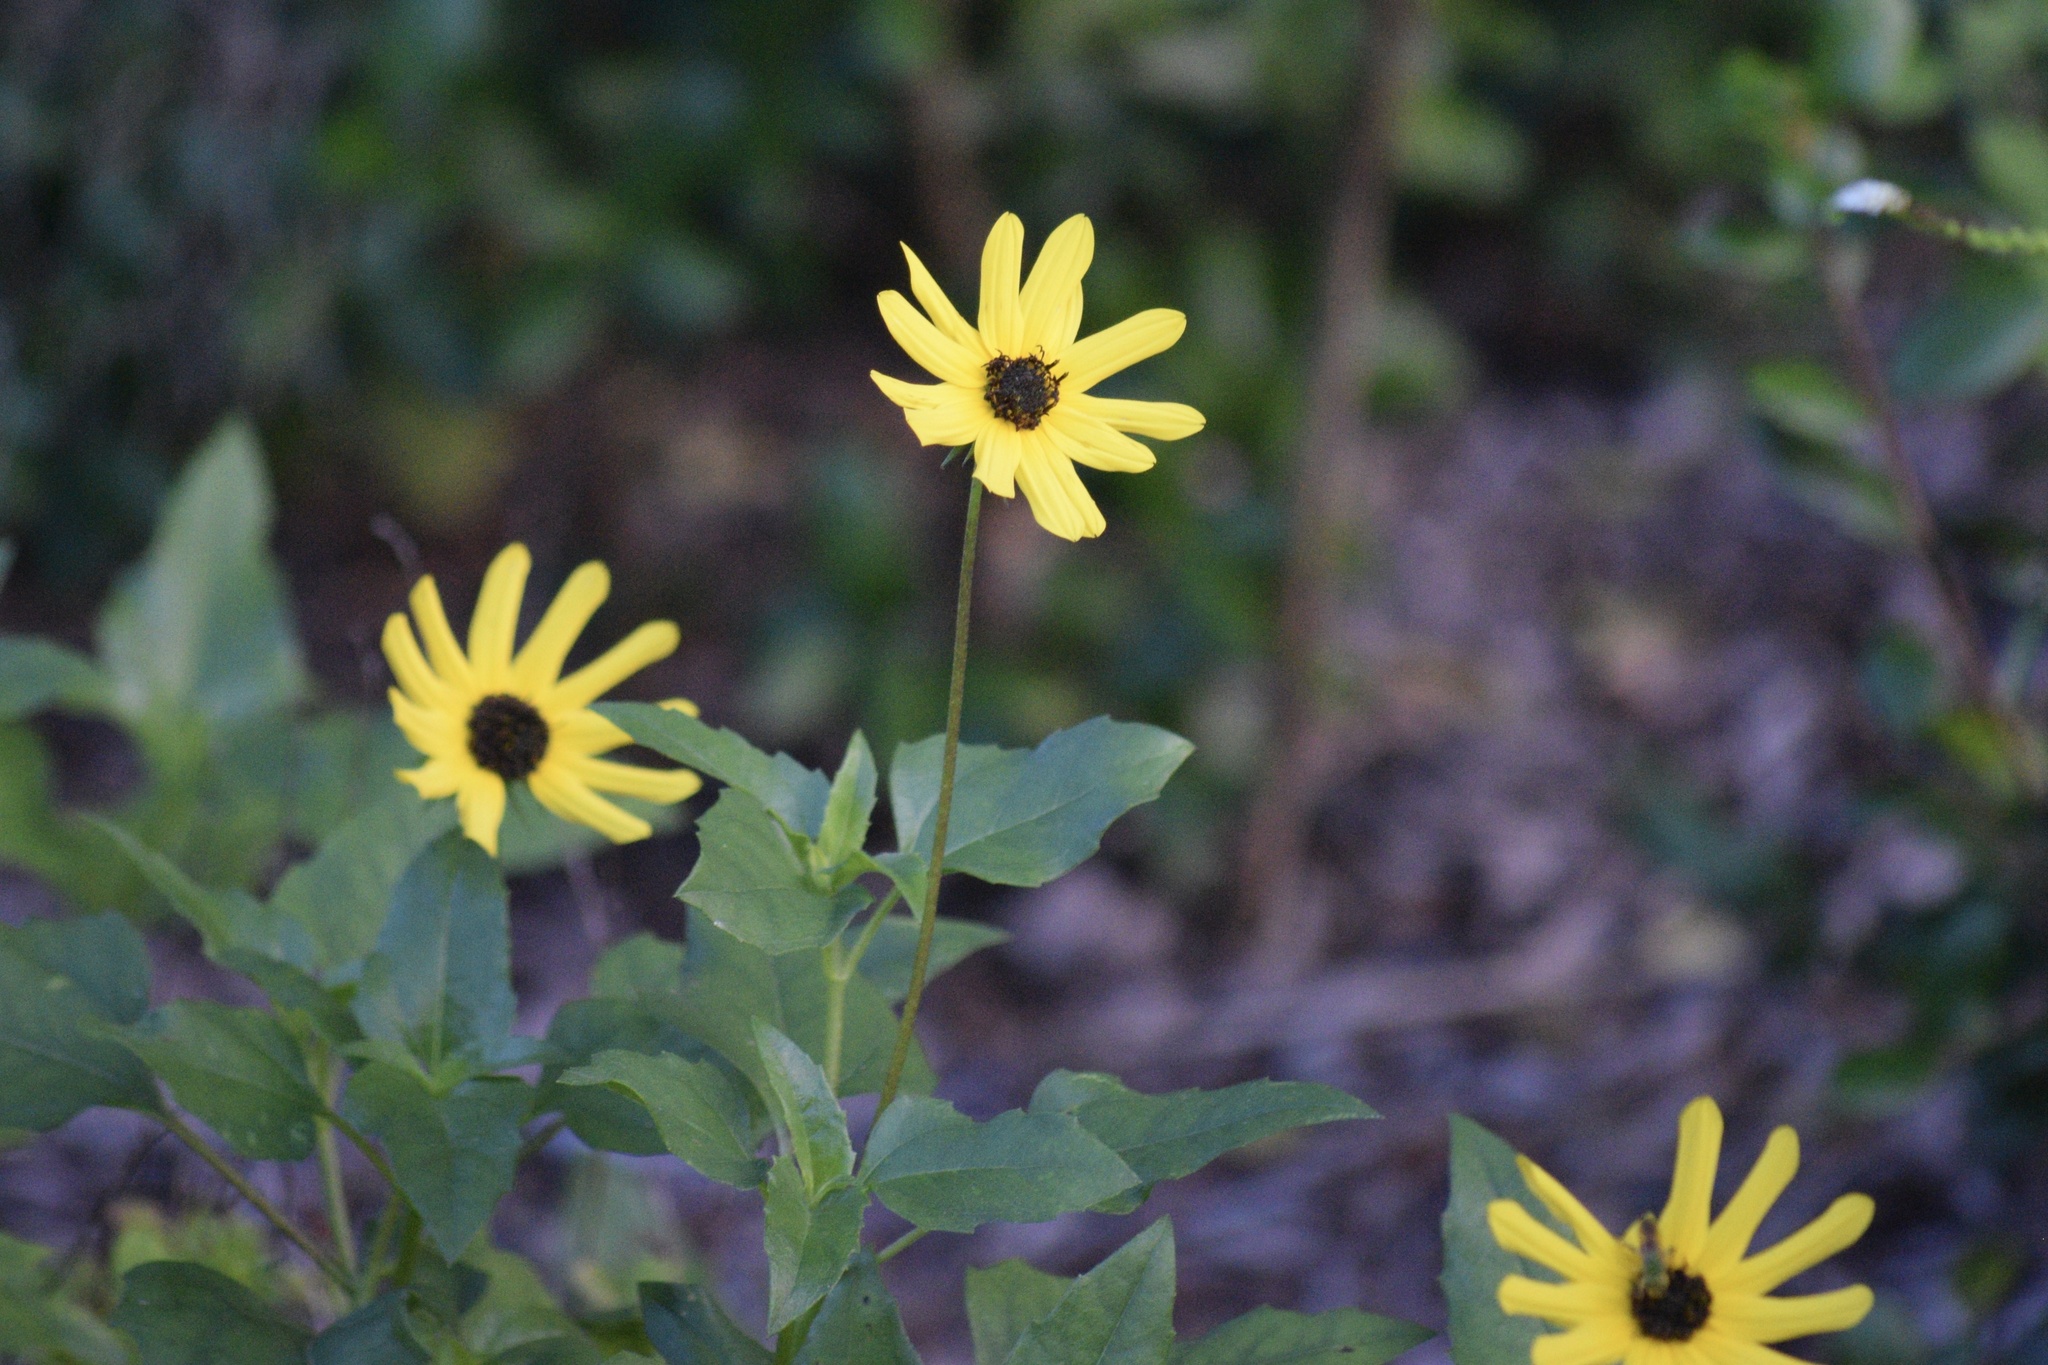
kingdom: Plantae
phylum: Tracheophyta
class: Magnoliopsida
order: Asterales
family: Asteraceae
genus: Helianthus
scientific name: Helianthus debilis
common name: Weak sunflower
